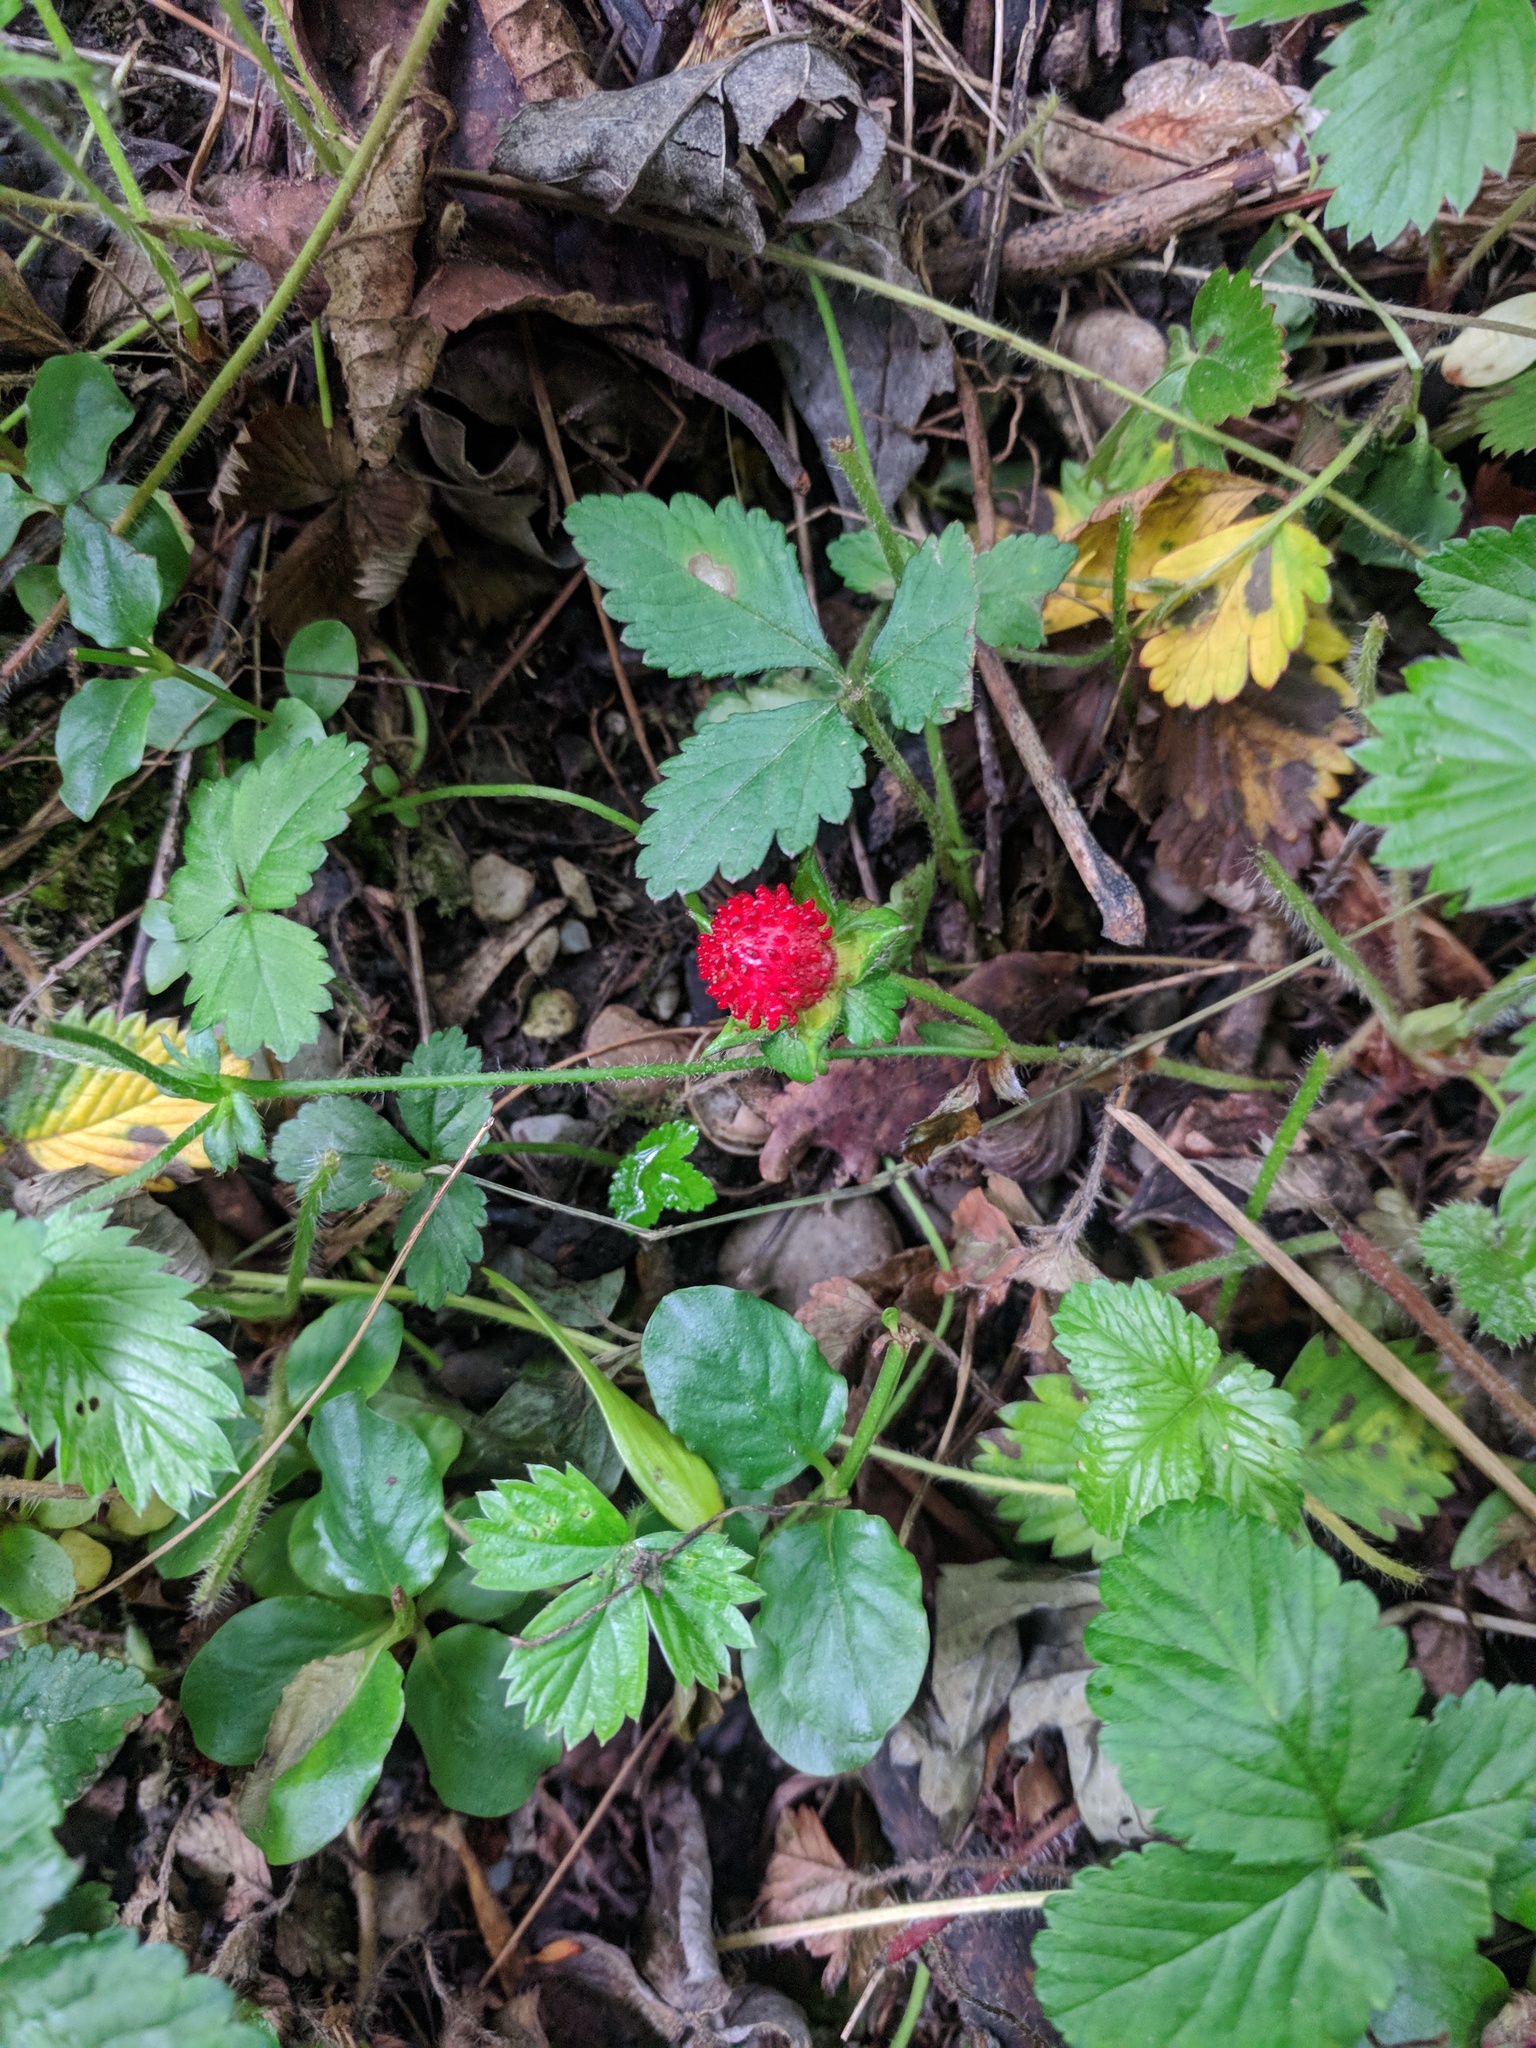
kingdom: Plantae
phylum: Tracheophyta
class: Magnoliopsida
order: Rosales
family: Rosaceae
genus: Potentilla
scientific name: Potentilla indica
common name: Yellow-flowered strawberry
